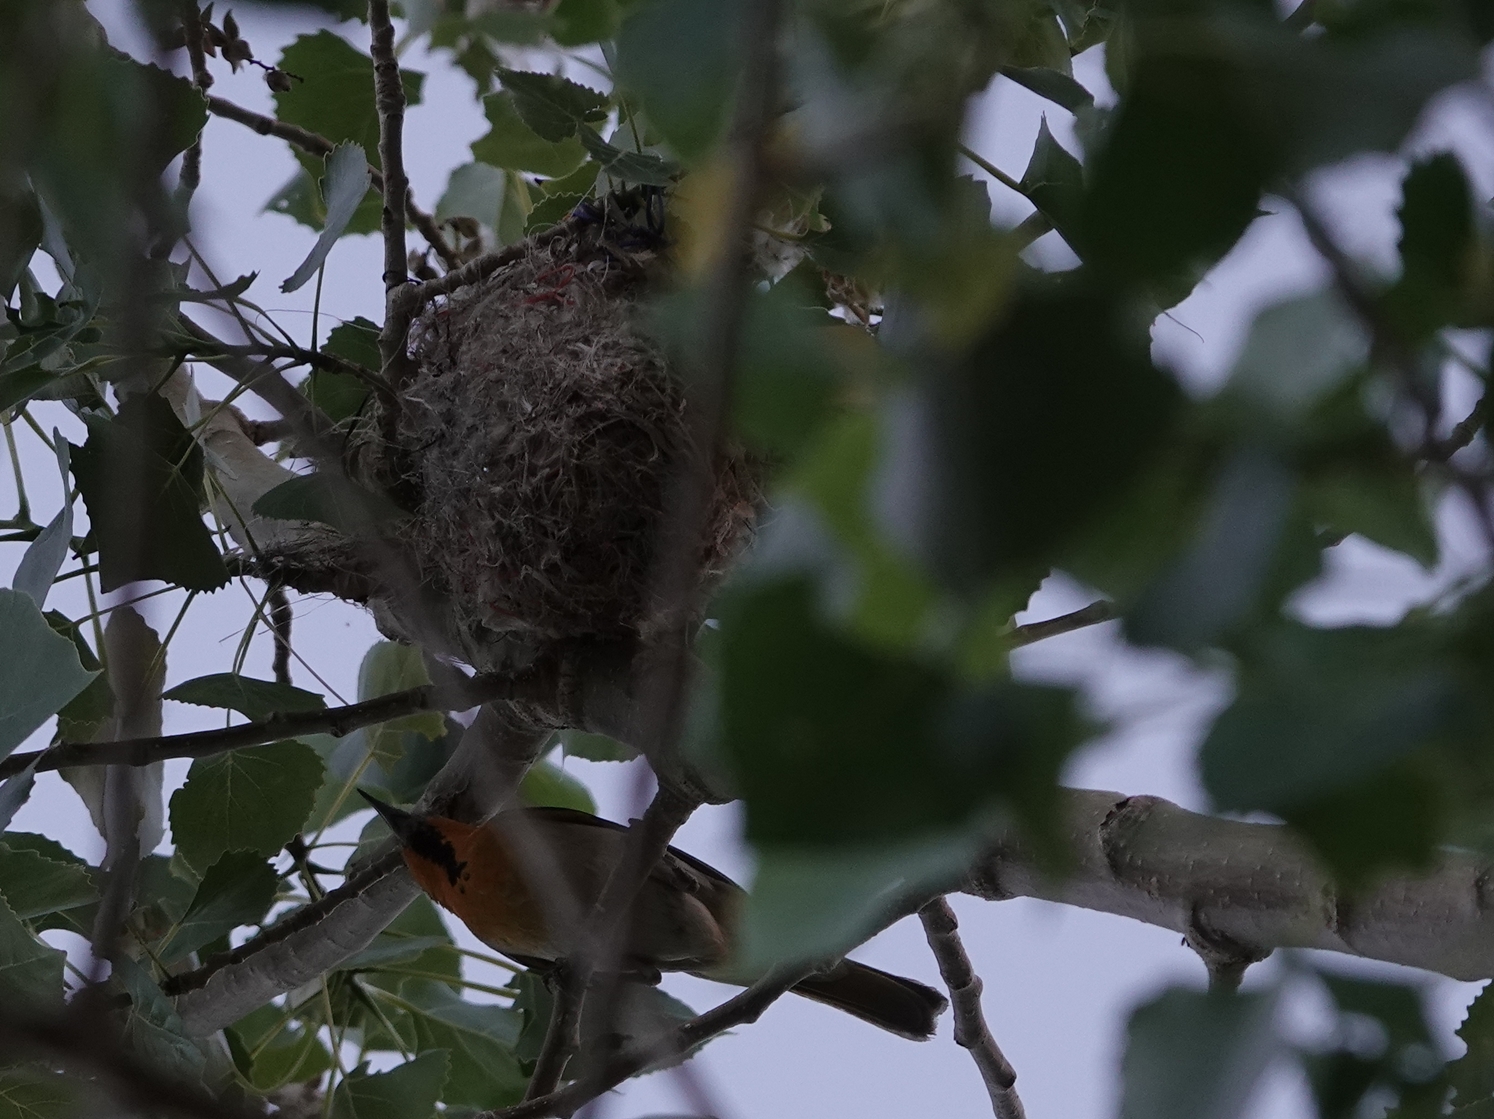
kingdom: Animalia
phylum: Chordata
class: Aves
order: Passeriformes
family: Icteridae
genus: Icterus
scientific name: Icterus bullockii
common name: Bullock's oriole
